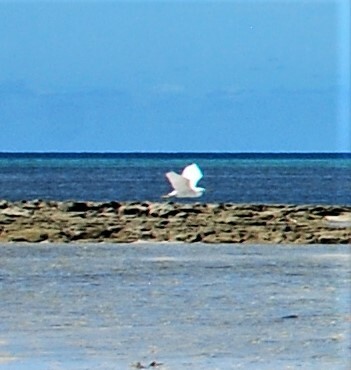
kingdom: Animalia
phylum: Chordata
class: Aves
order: Pelecaniformes
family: Ardeidae
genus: Egretta
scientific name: Egretta garzetta
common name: Little egret
